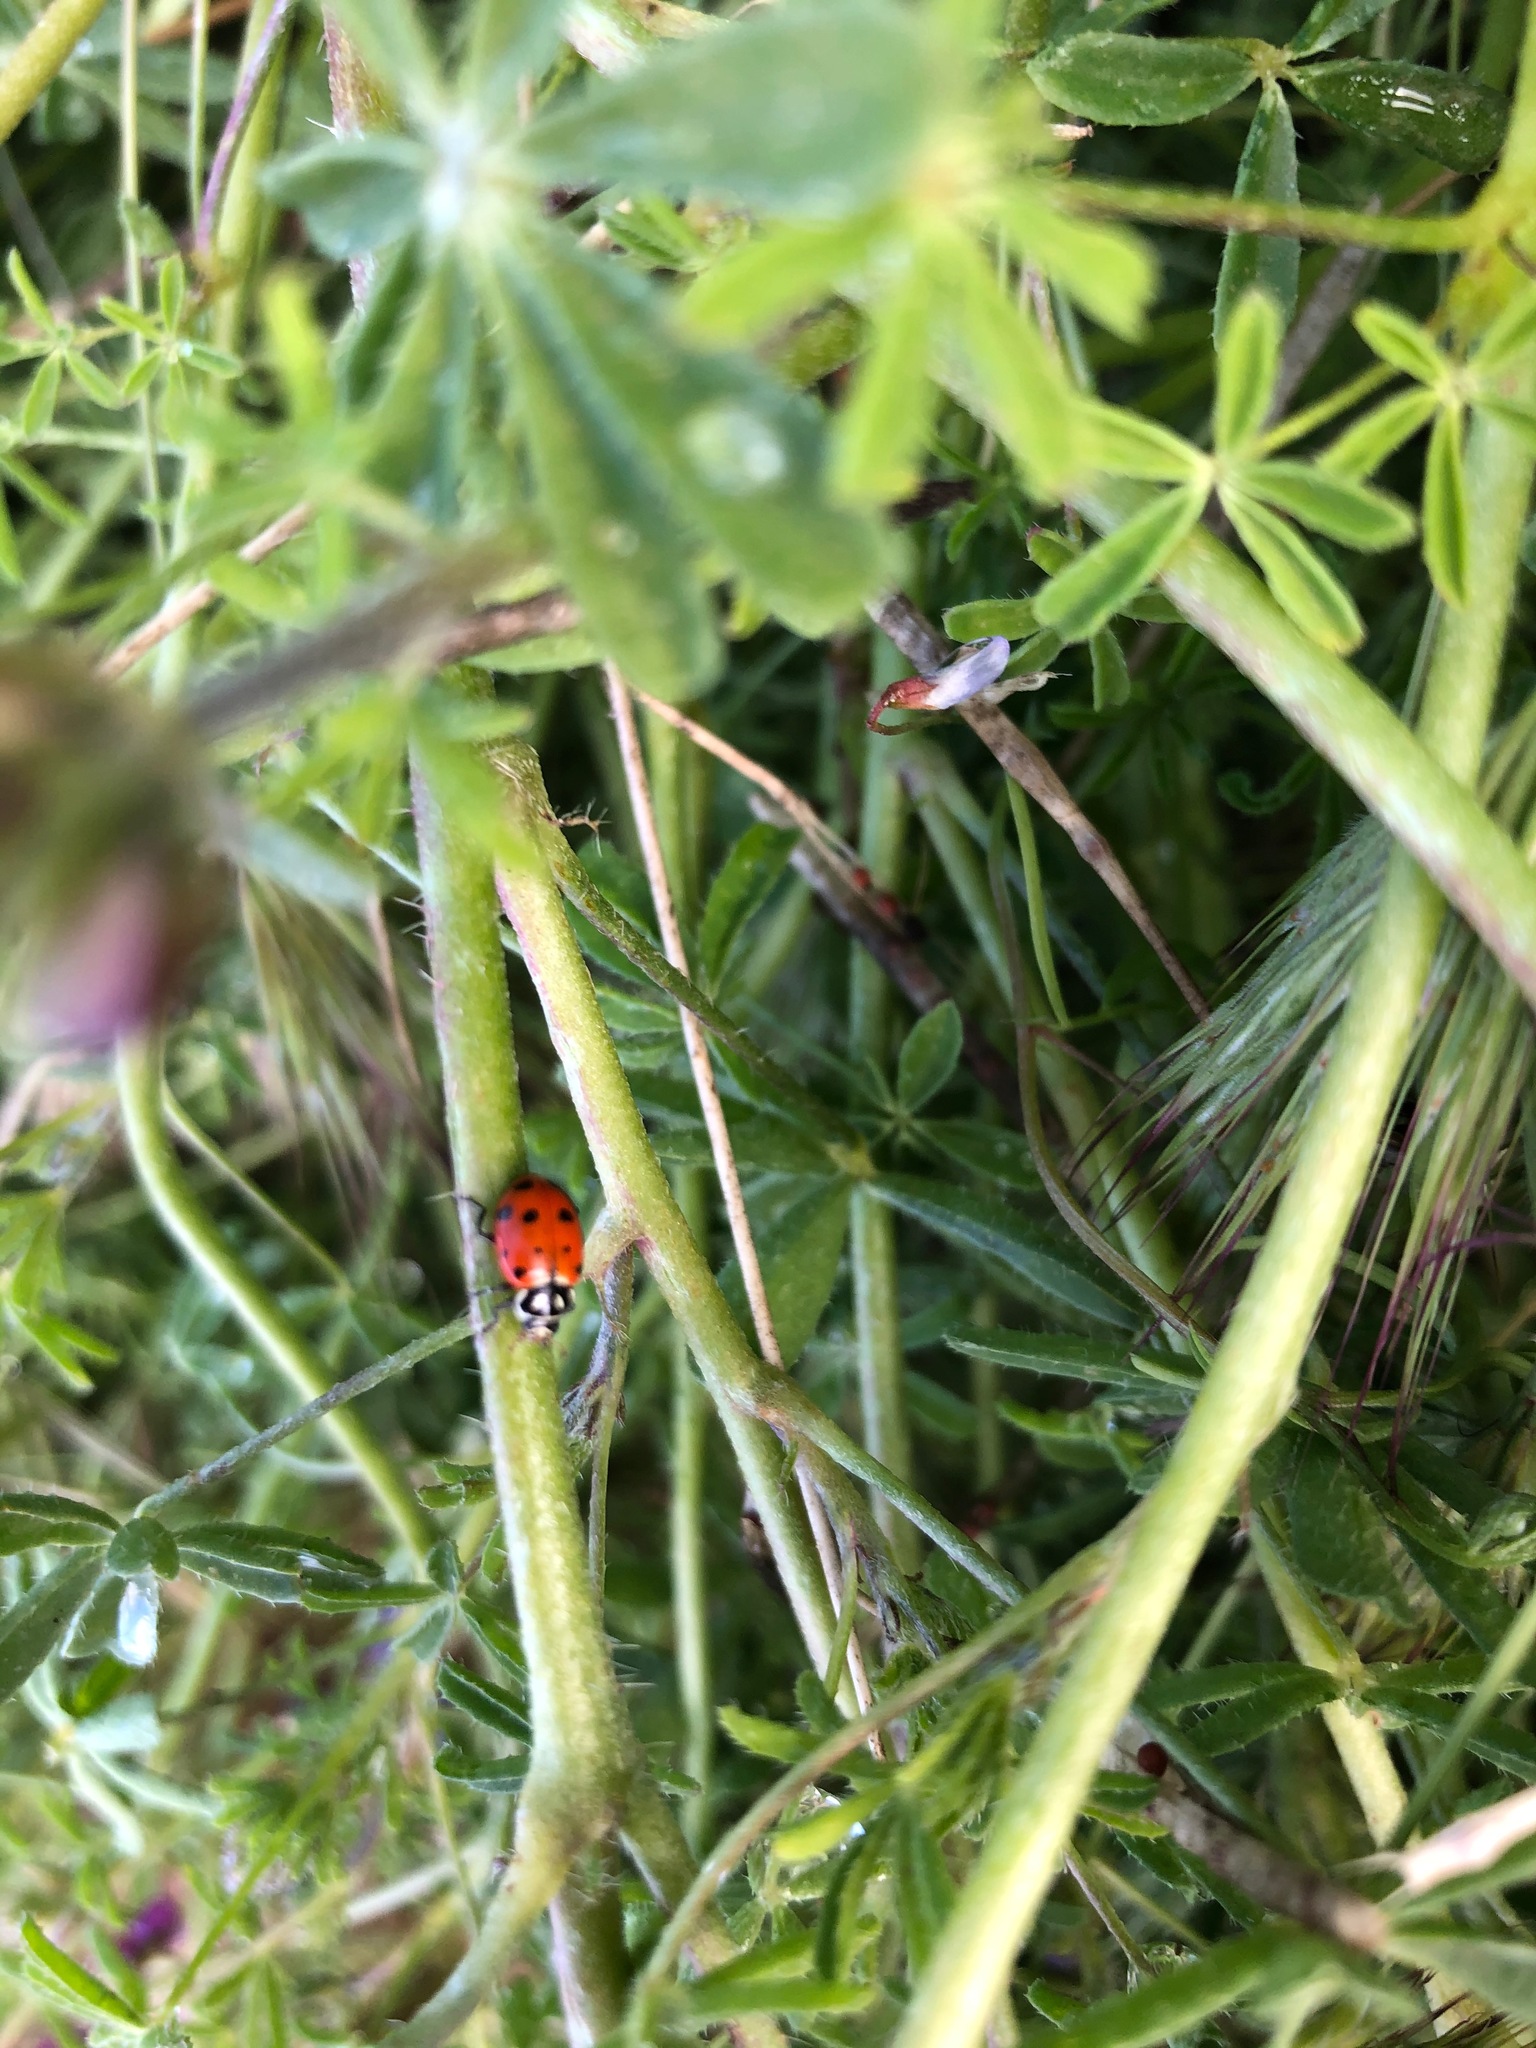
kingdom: Animalia
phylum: Arthropoda
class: Insecta
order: Coleoptera
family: Coccinellidae
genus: Hippodamia
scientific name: Hippodamia convergens
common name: Convergent lady beetle
